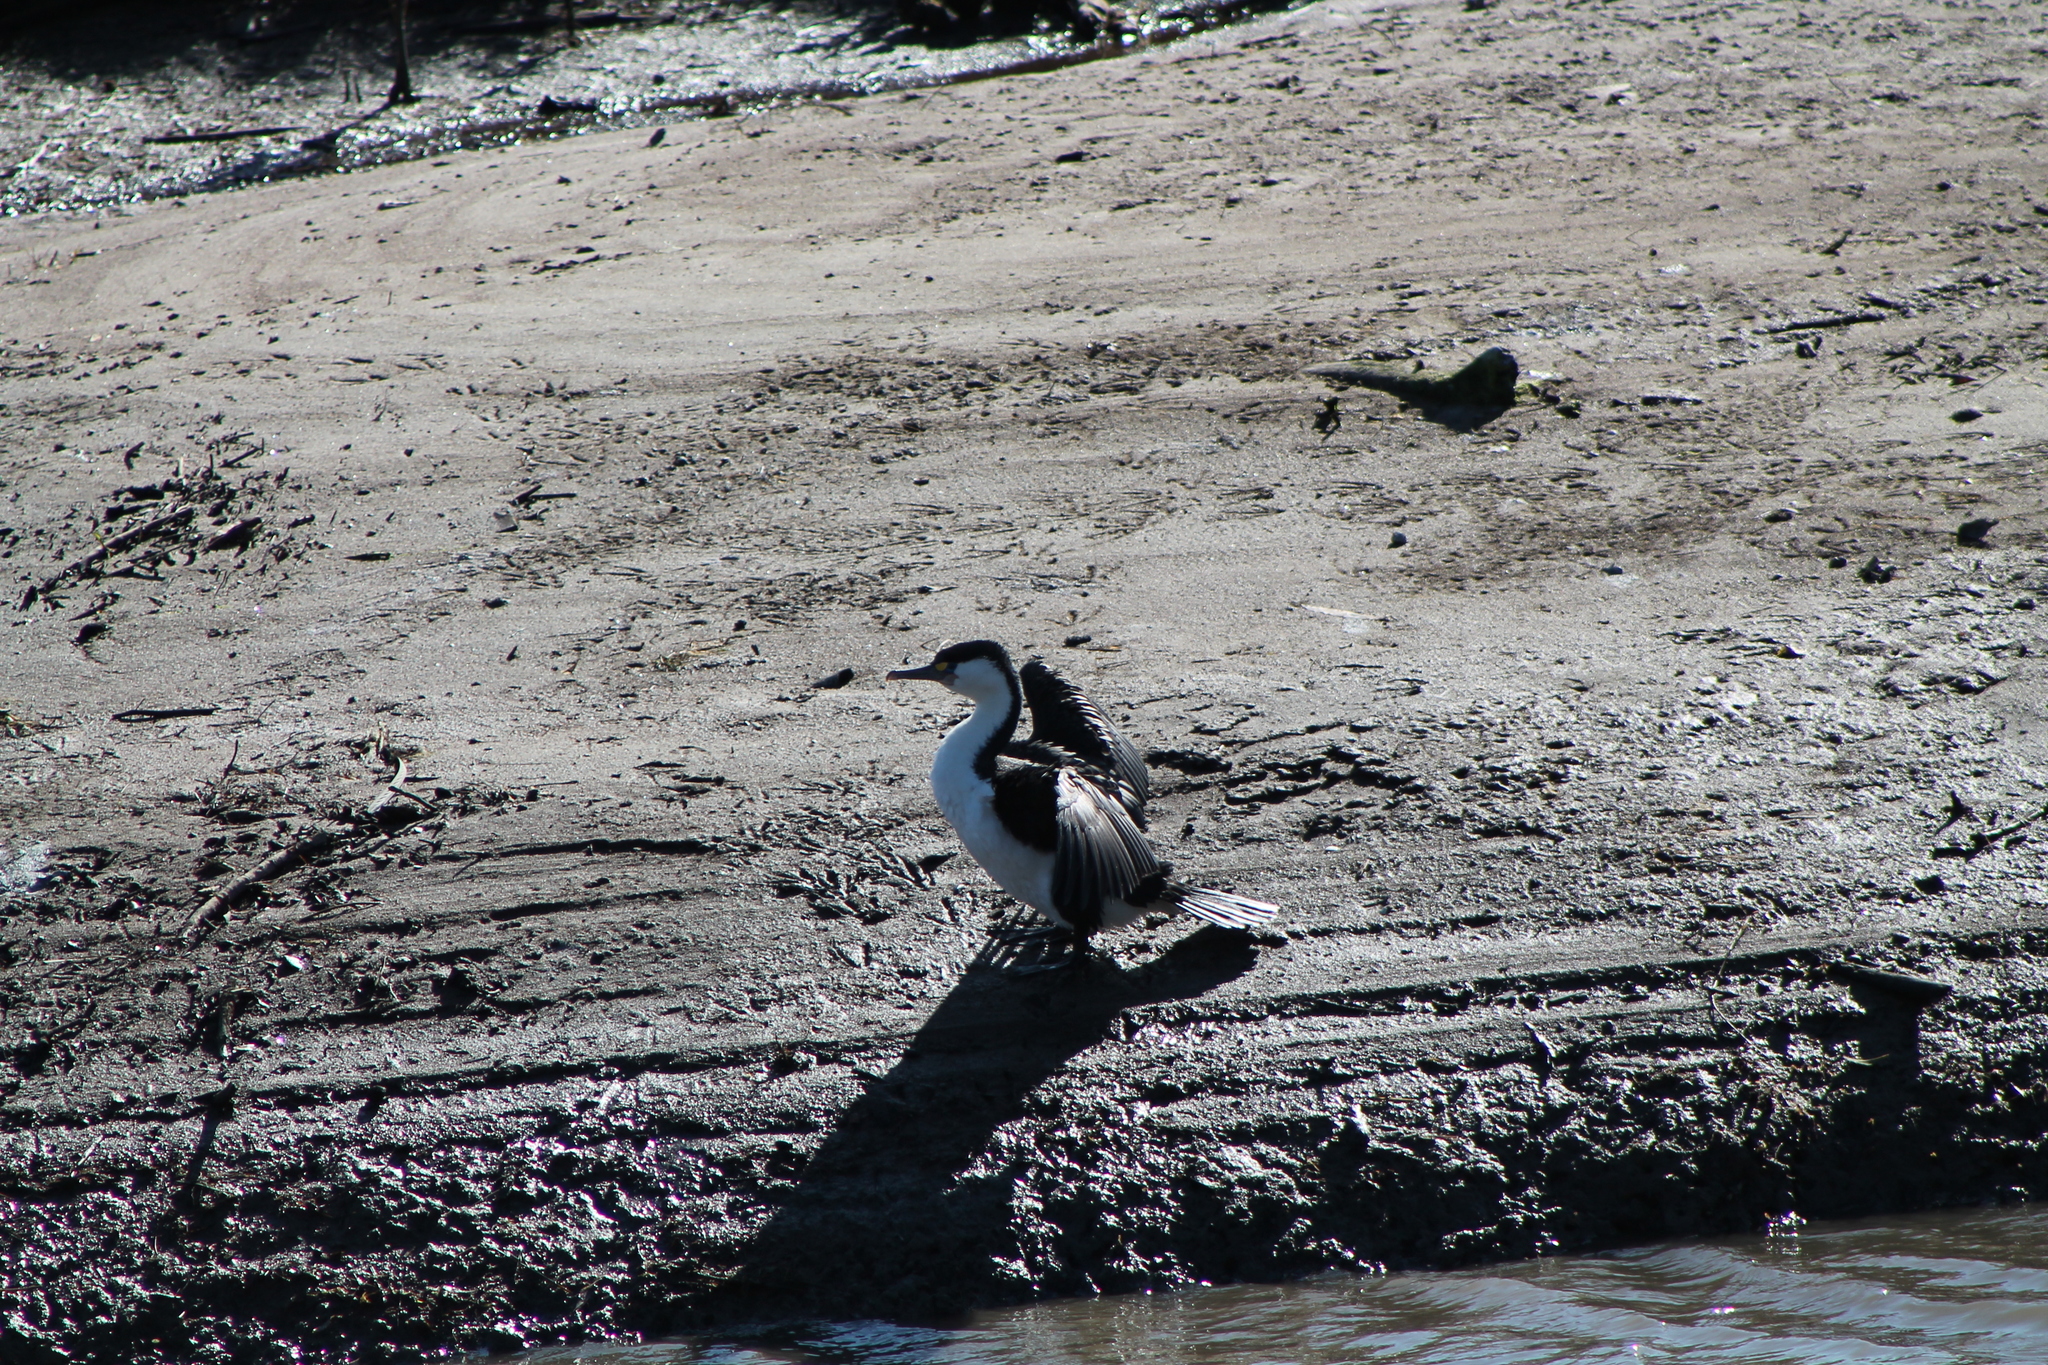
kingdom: Animalia
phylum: Chordata
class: Aves
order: Suliformes
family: Phalacrocoracidae
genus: Phalacrocorax
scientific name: Phalacrocorax varius
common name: Pied cormorant
